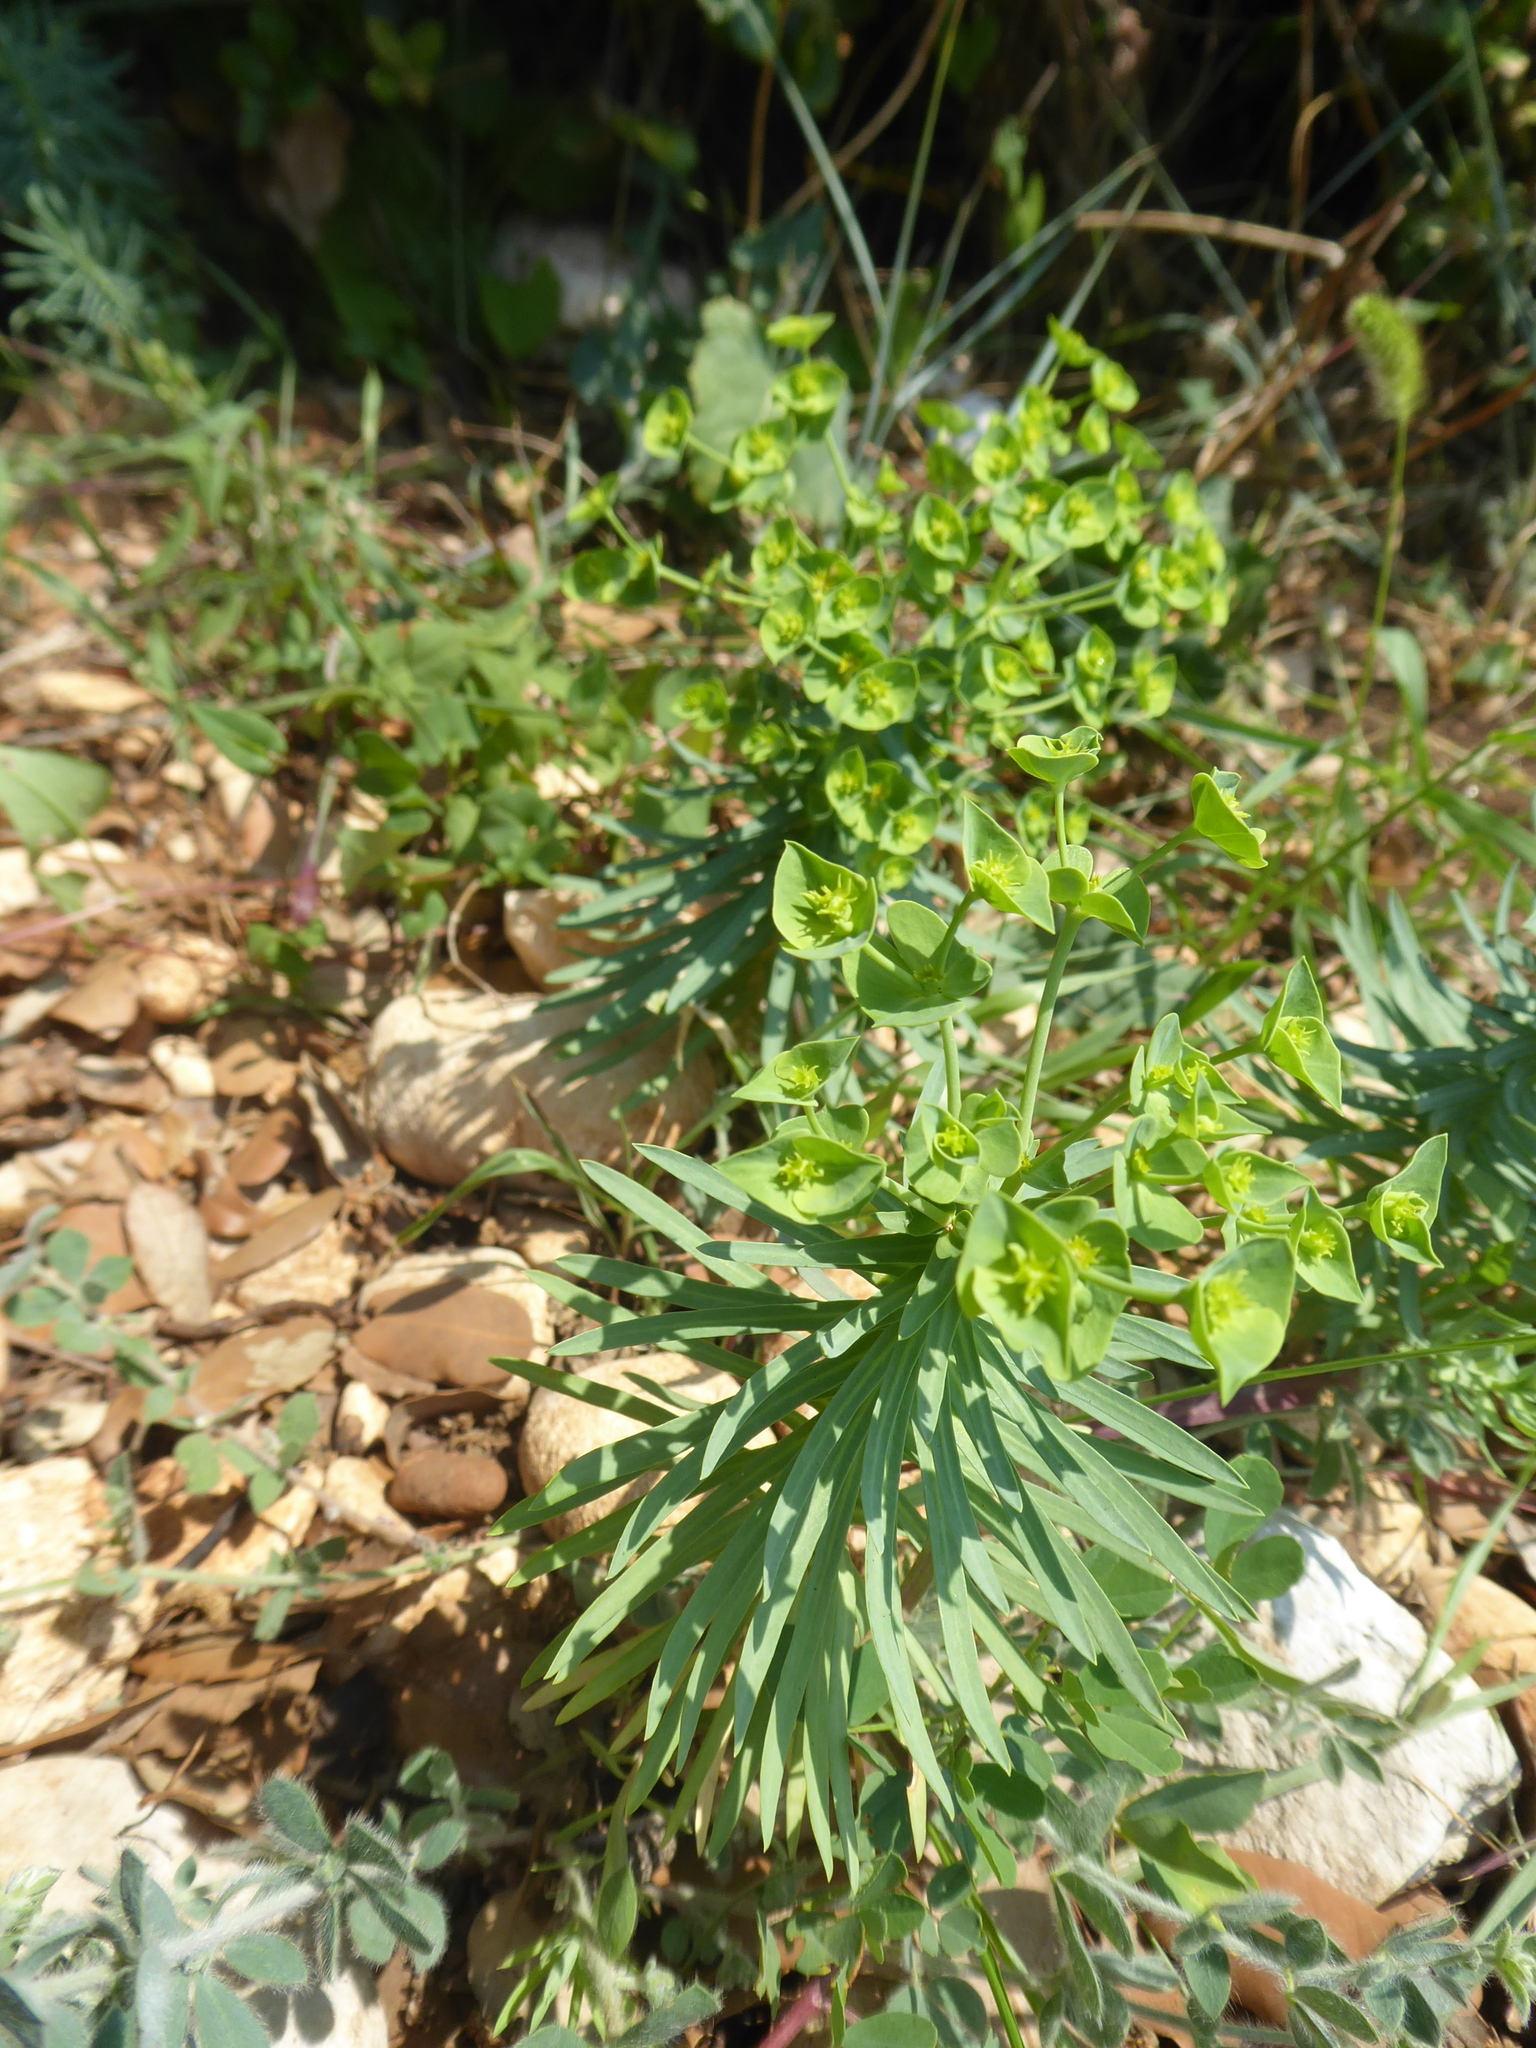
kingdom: Plantae
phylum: Tracheophyta
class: Magnoliopsida
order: Malpighiales
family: Euphorbiaceae
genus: Euphorbia
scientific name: Euphorbia segetalis
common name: Corn spurge
